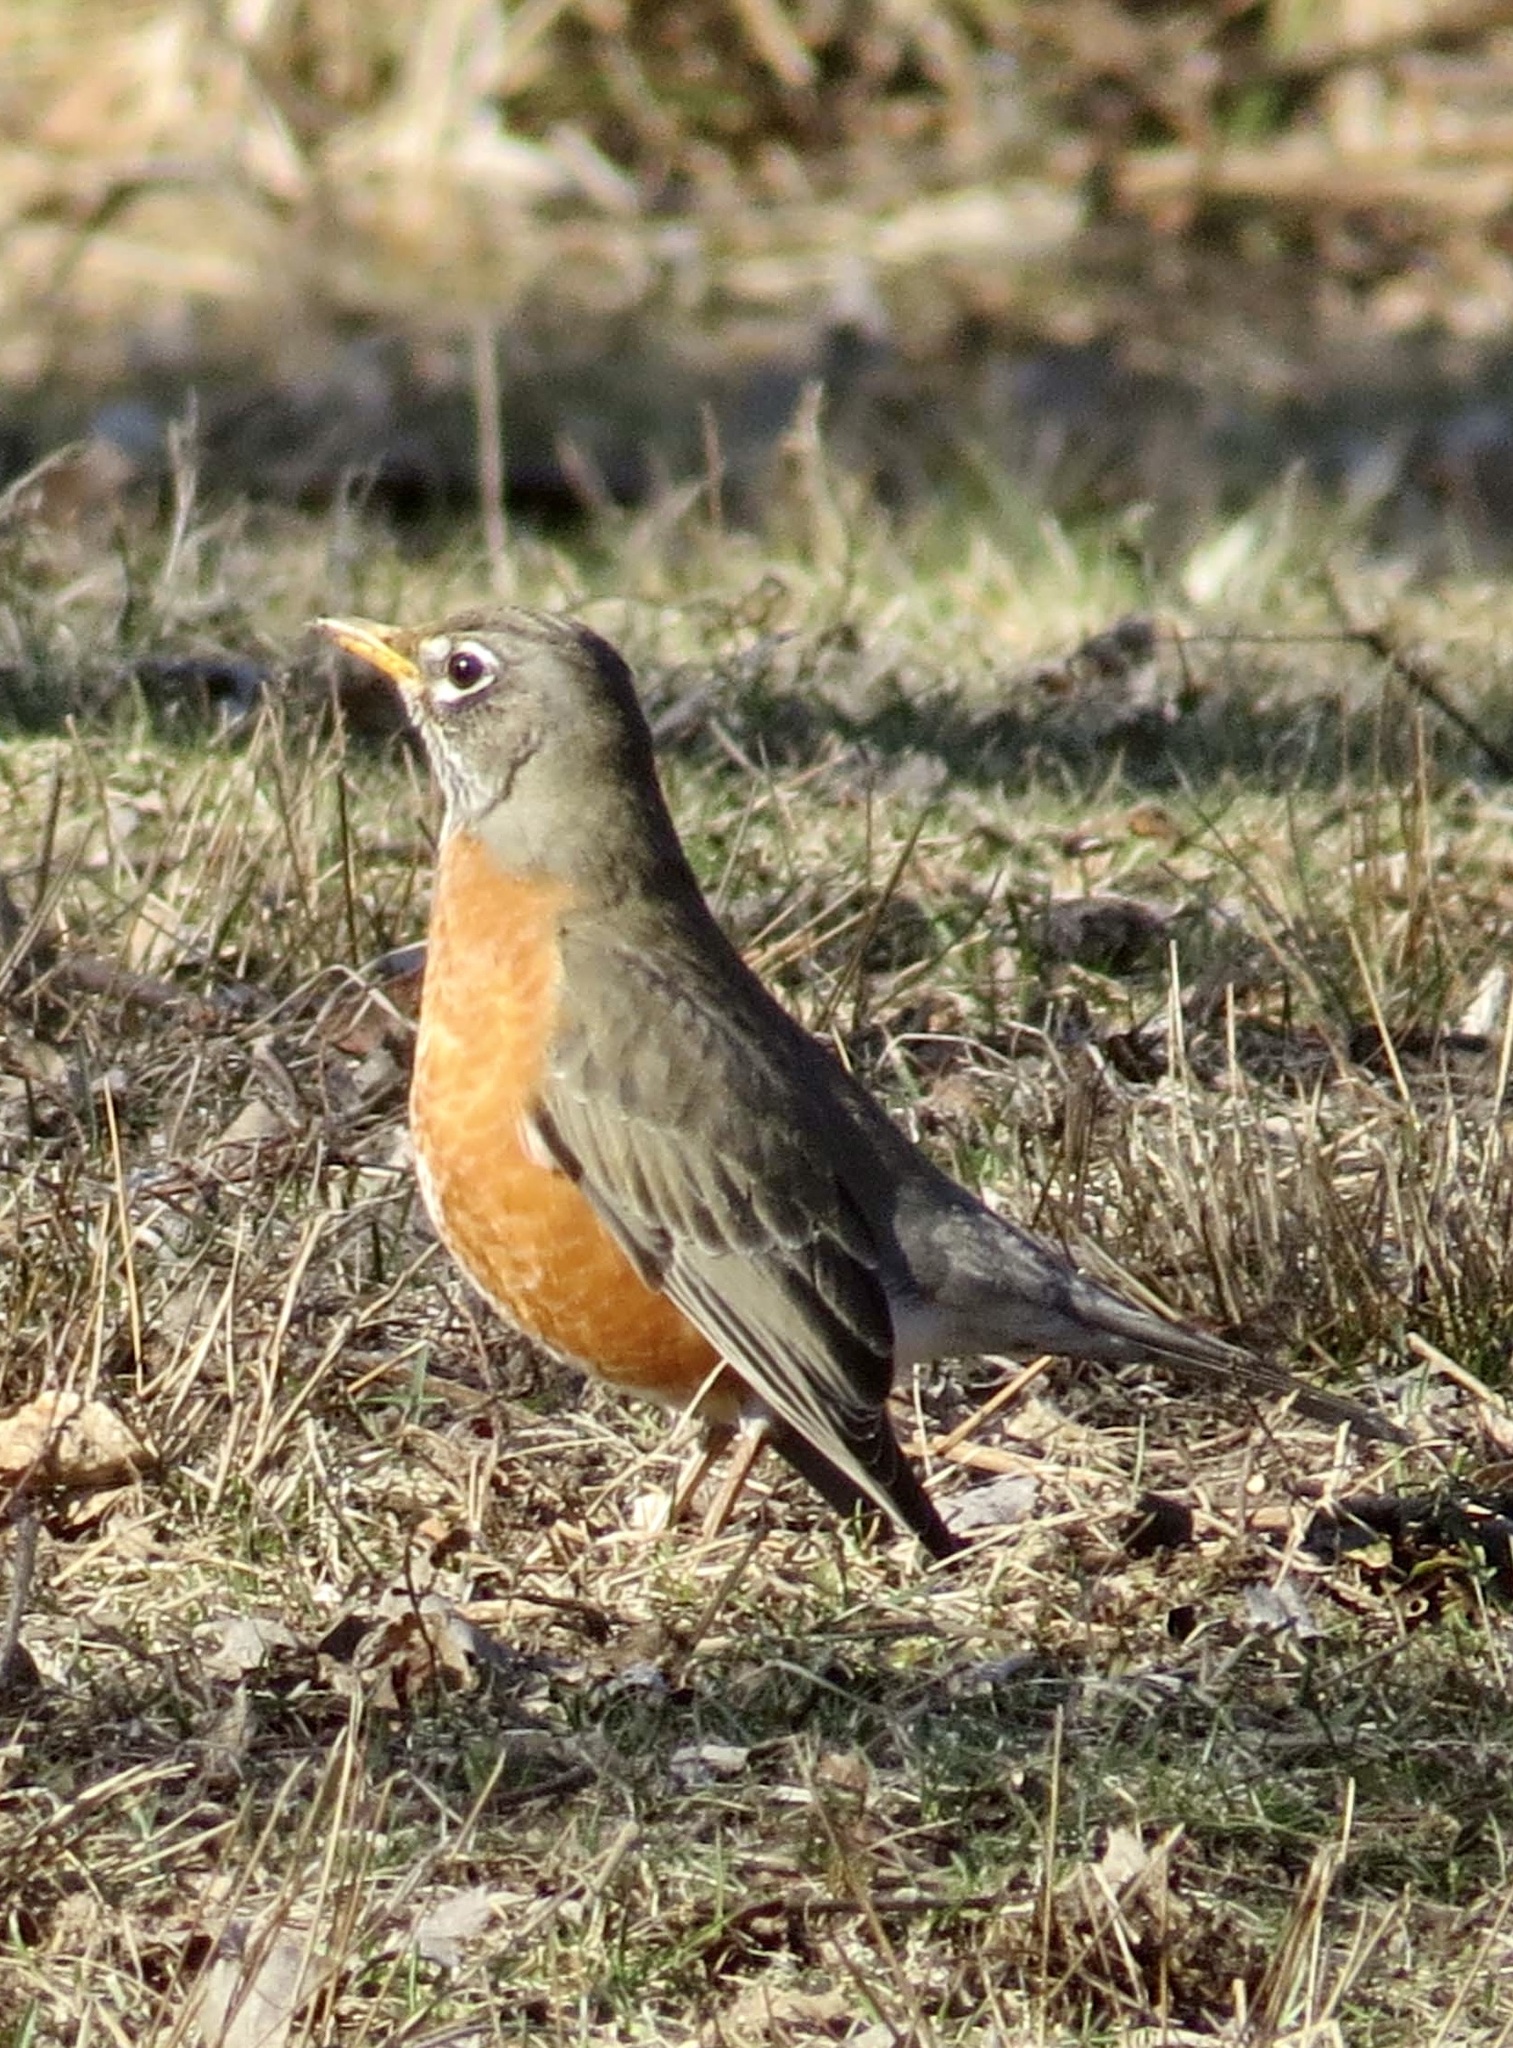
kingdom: Animalia
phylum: Chordata
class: Aves
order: Passeriformes
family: Turdidae
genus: Turdus
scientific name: Turdus migratorius
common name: American robin
